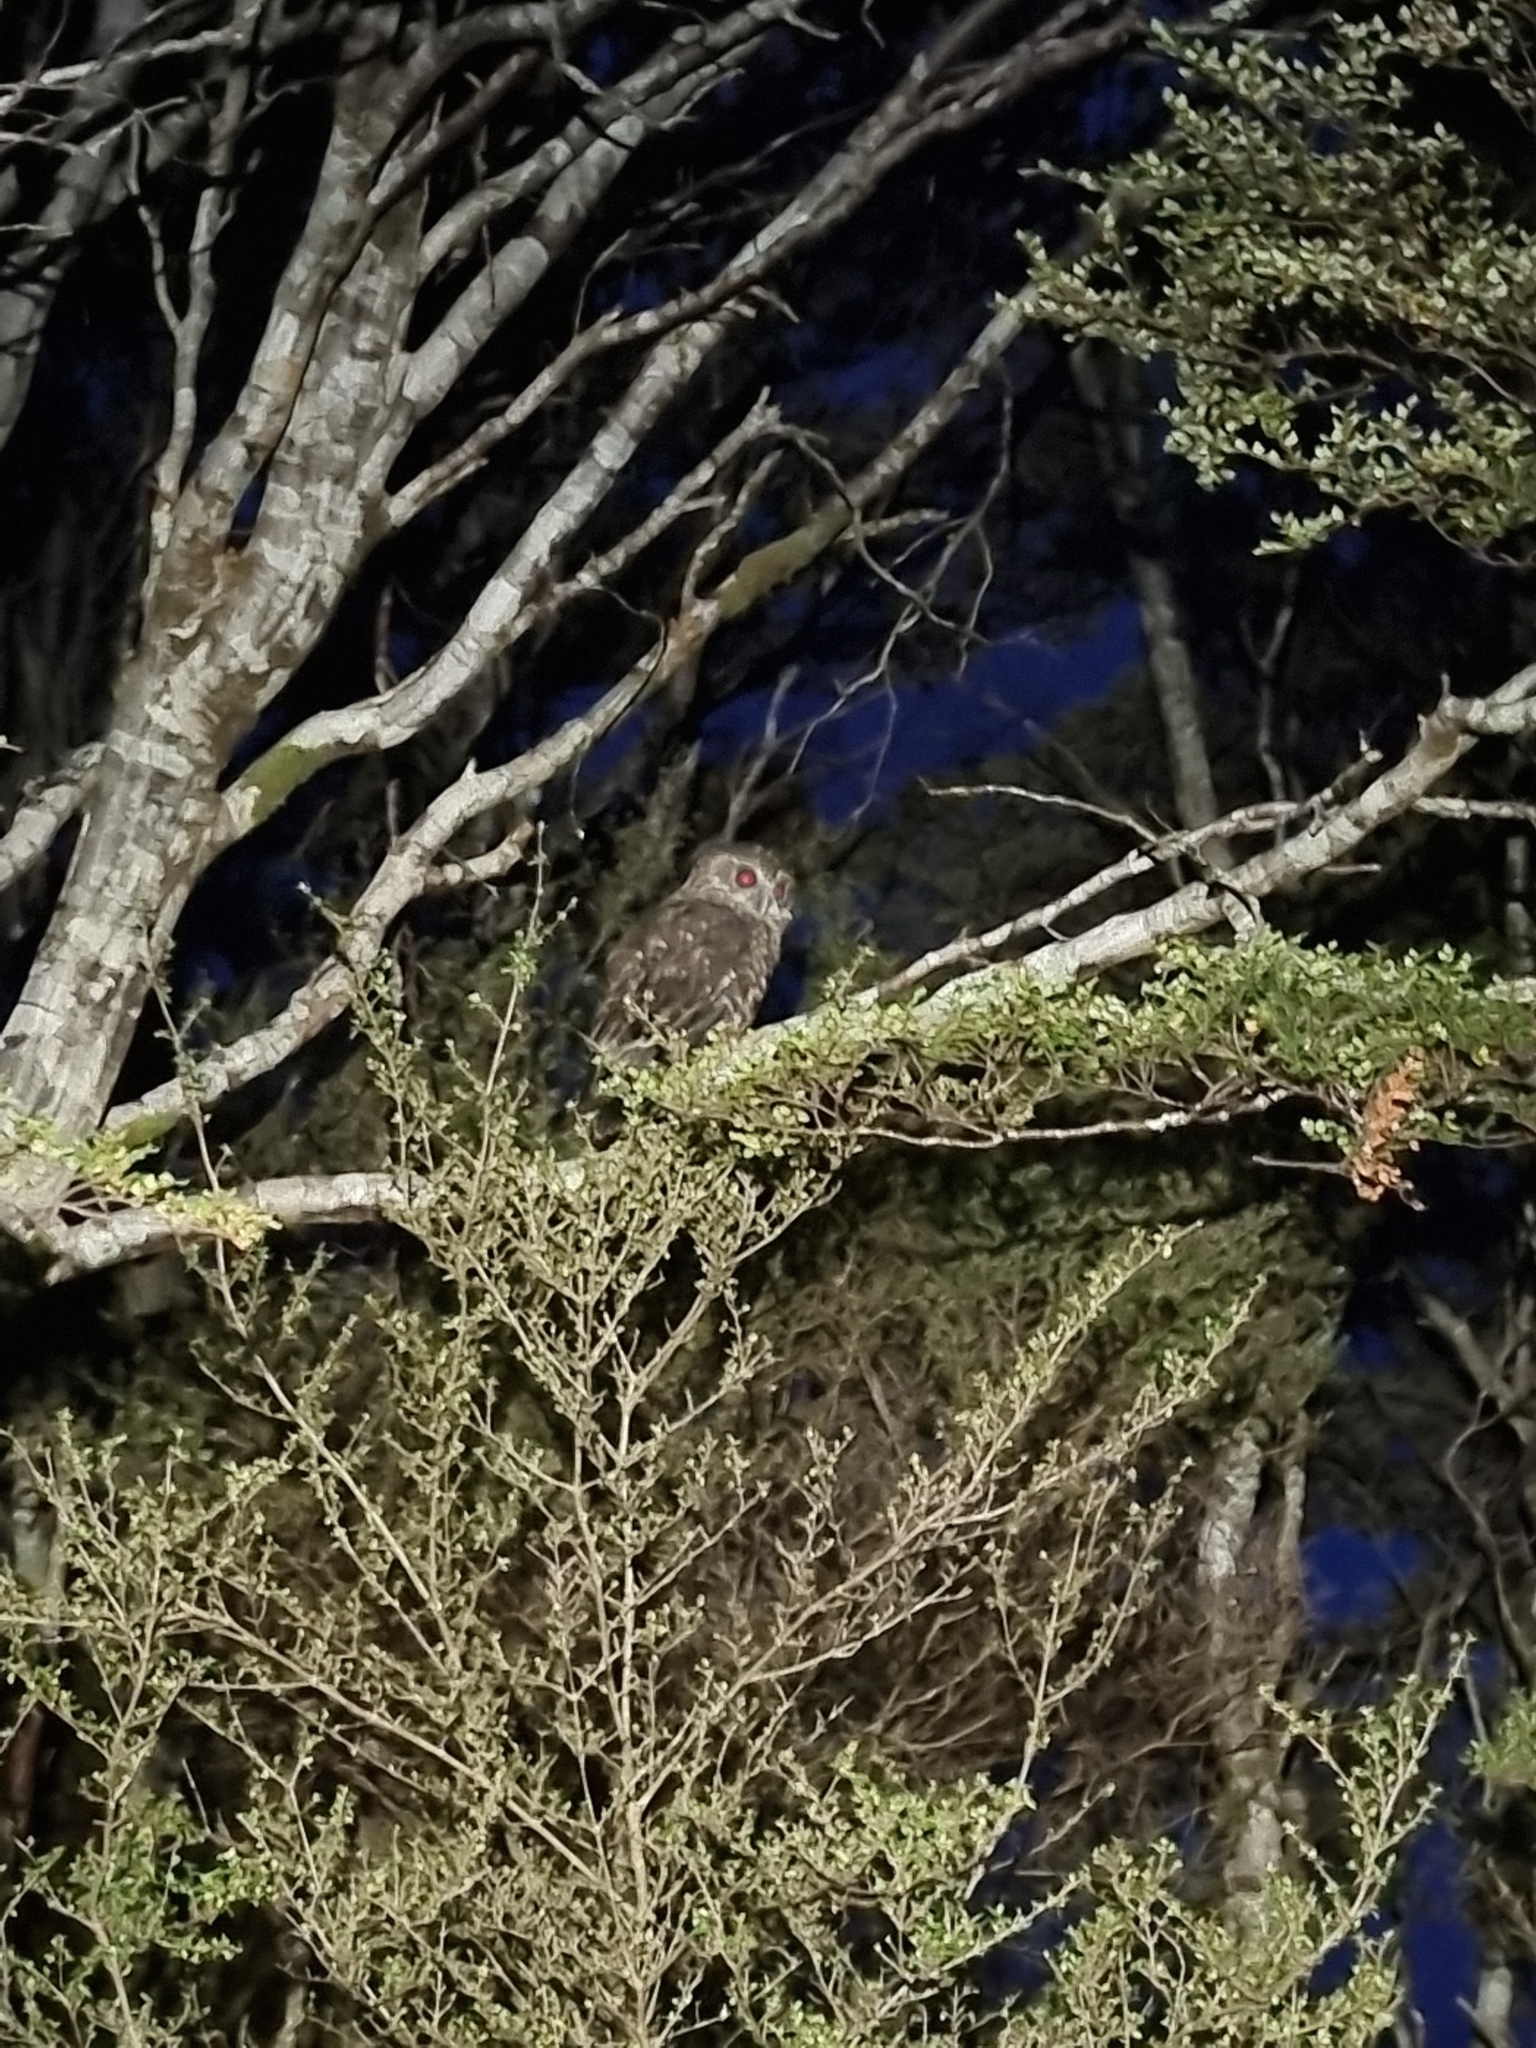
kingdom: Animalia
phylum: Chordata
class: Aves
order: Strigiformes
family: Strigidae
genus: Ninox
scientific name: Ninox novaeseelandiae
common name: Morepork
